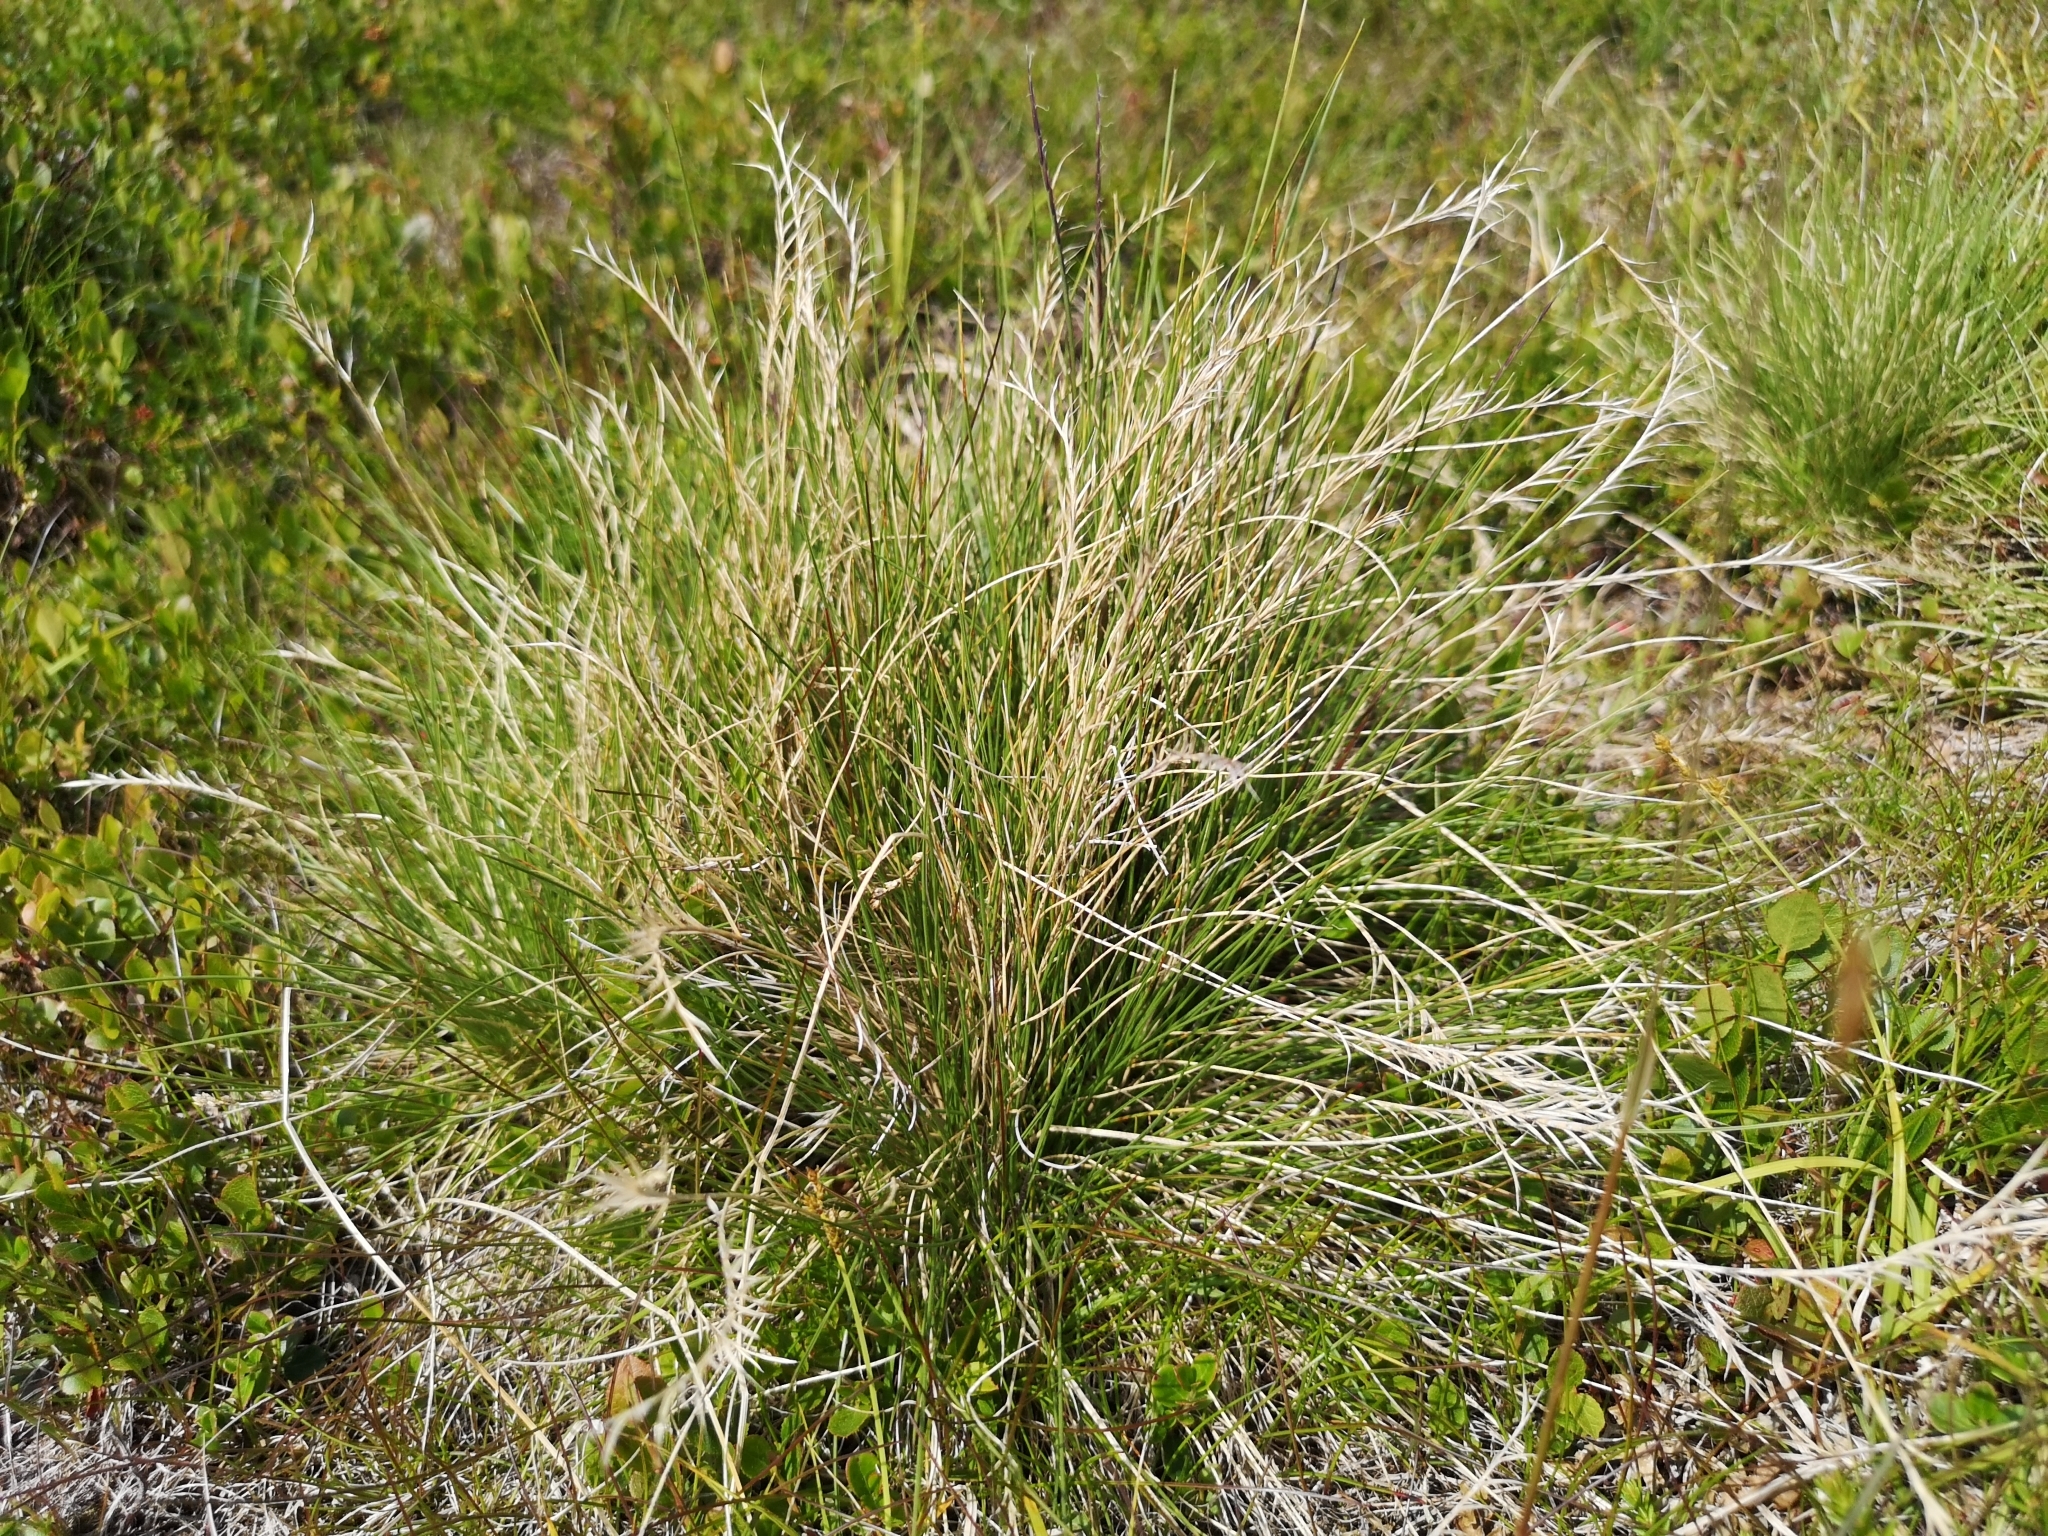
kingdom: Plantae
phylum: Tracheophyta
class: Liliopsida
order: Poales
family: Poaceae
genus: Nardus
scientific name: Nardus stricta
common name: Mat-grass
